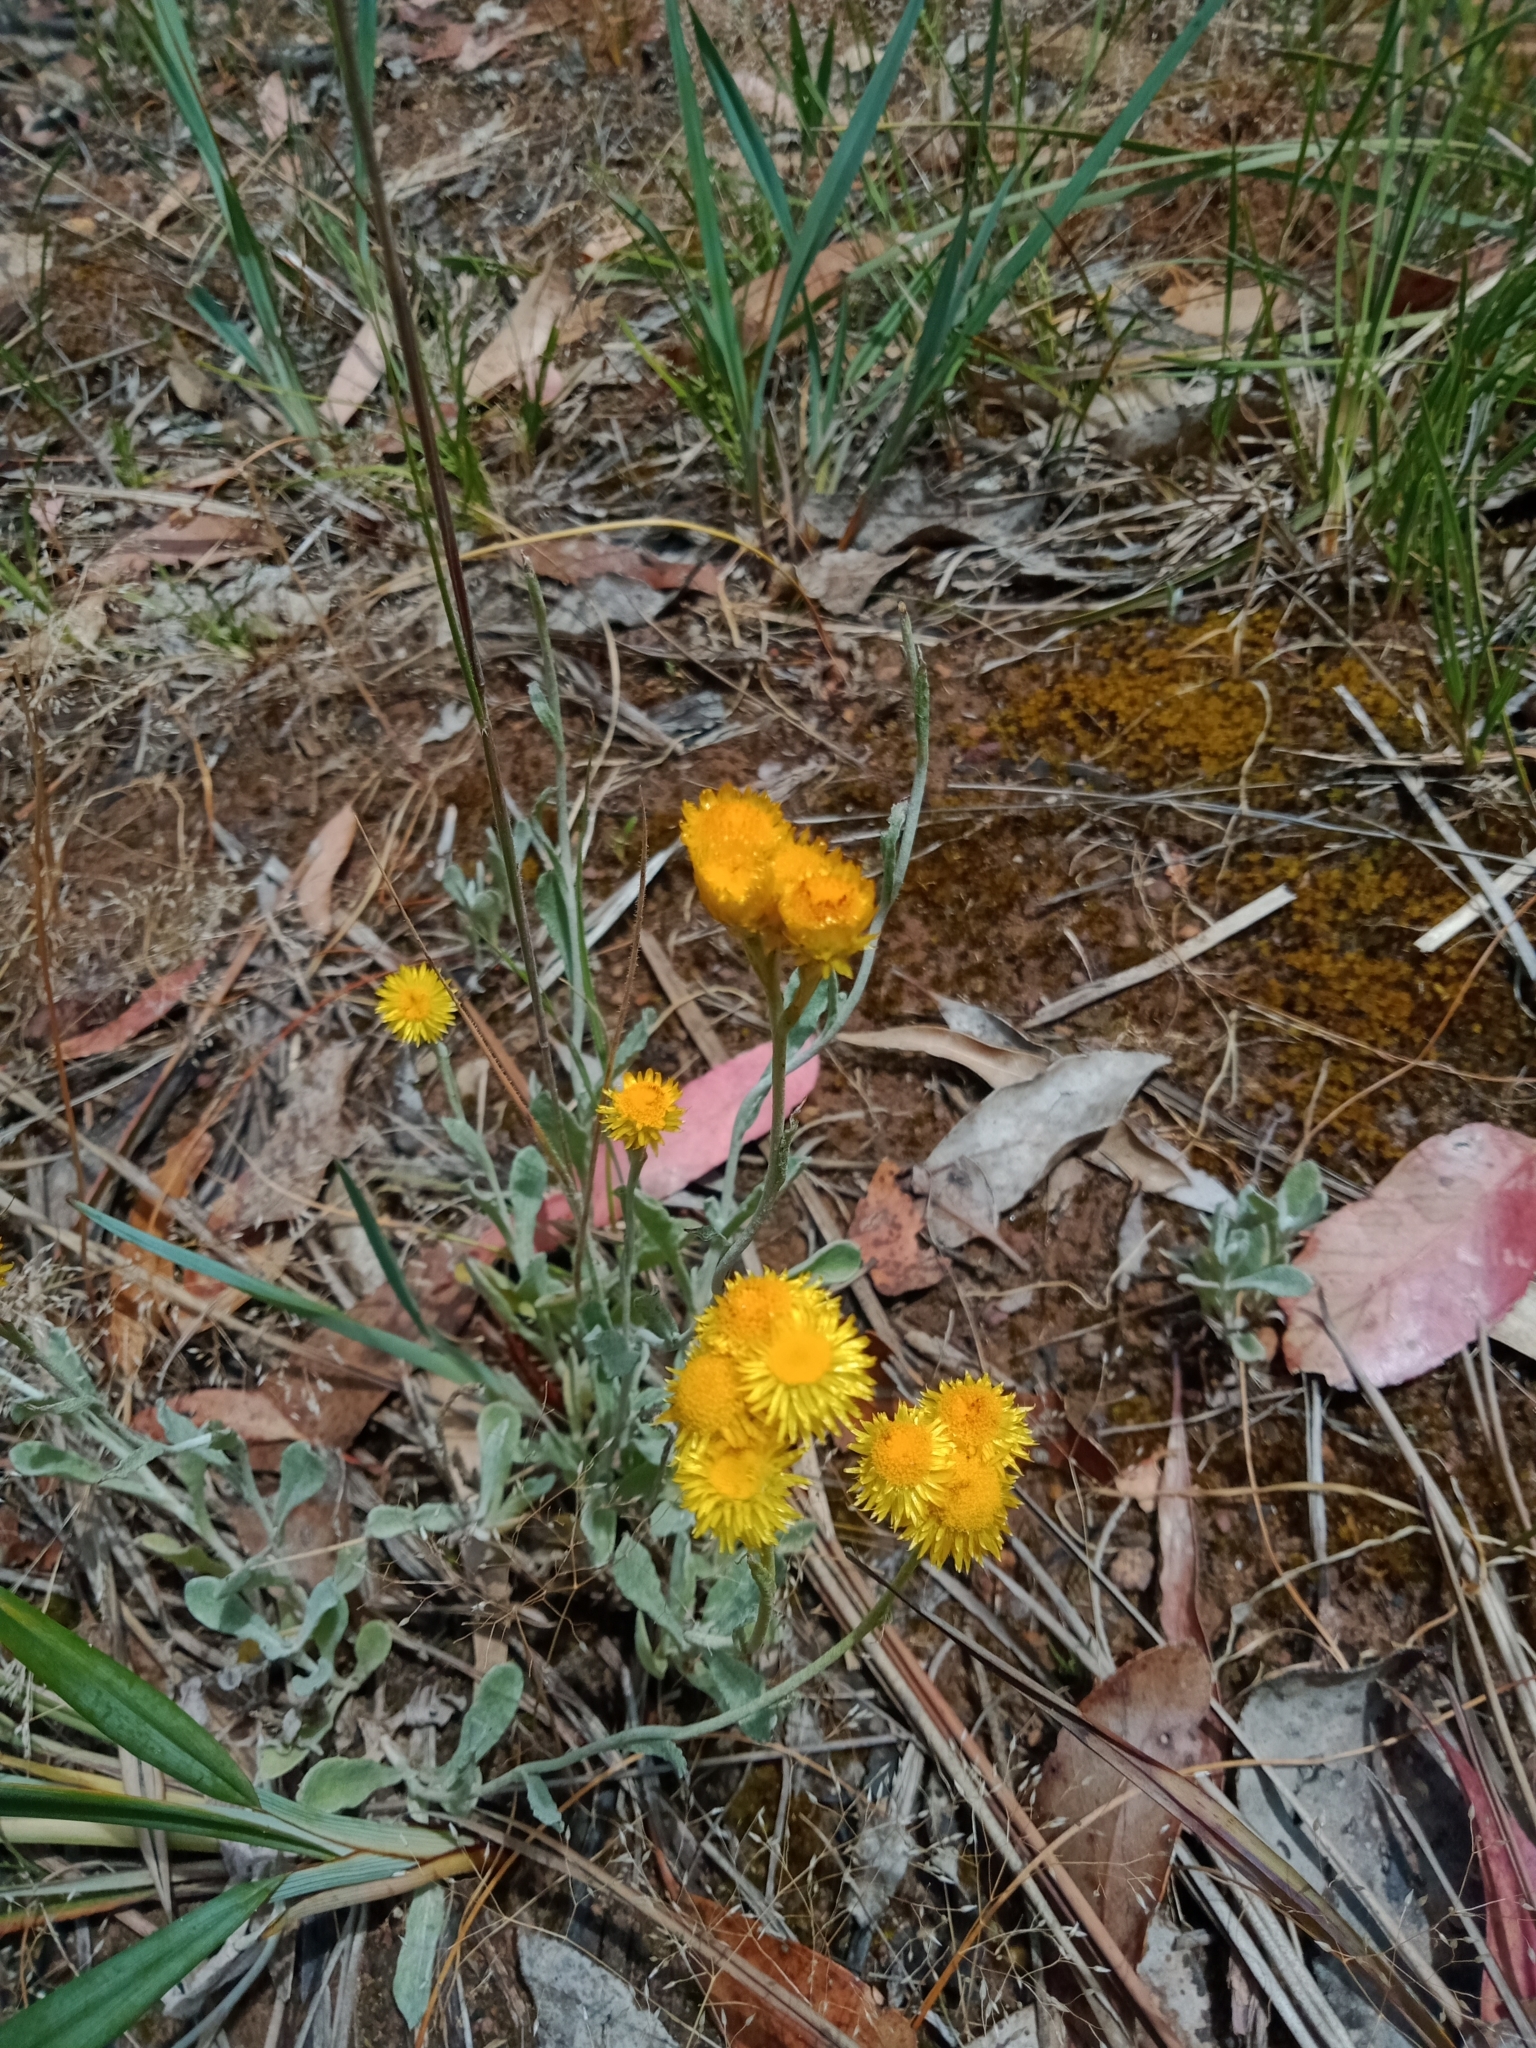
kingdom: Plantae
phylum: Tracheophyta
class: Magnoliopsida
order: Asterales
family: Asteraceae
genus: Chrysocephalum
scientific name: Chrysocephalum apiculatum
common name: Common everlasting
